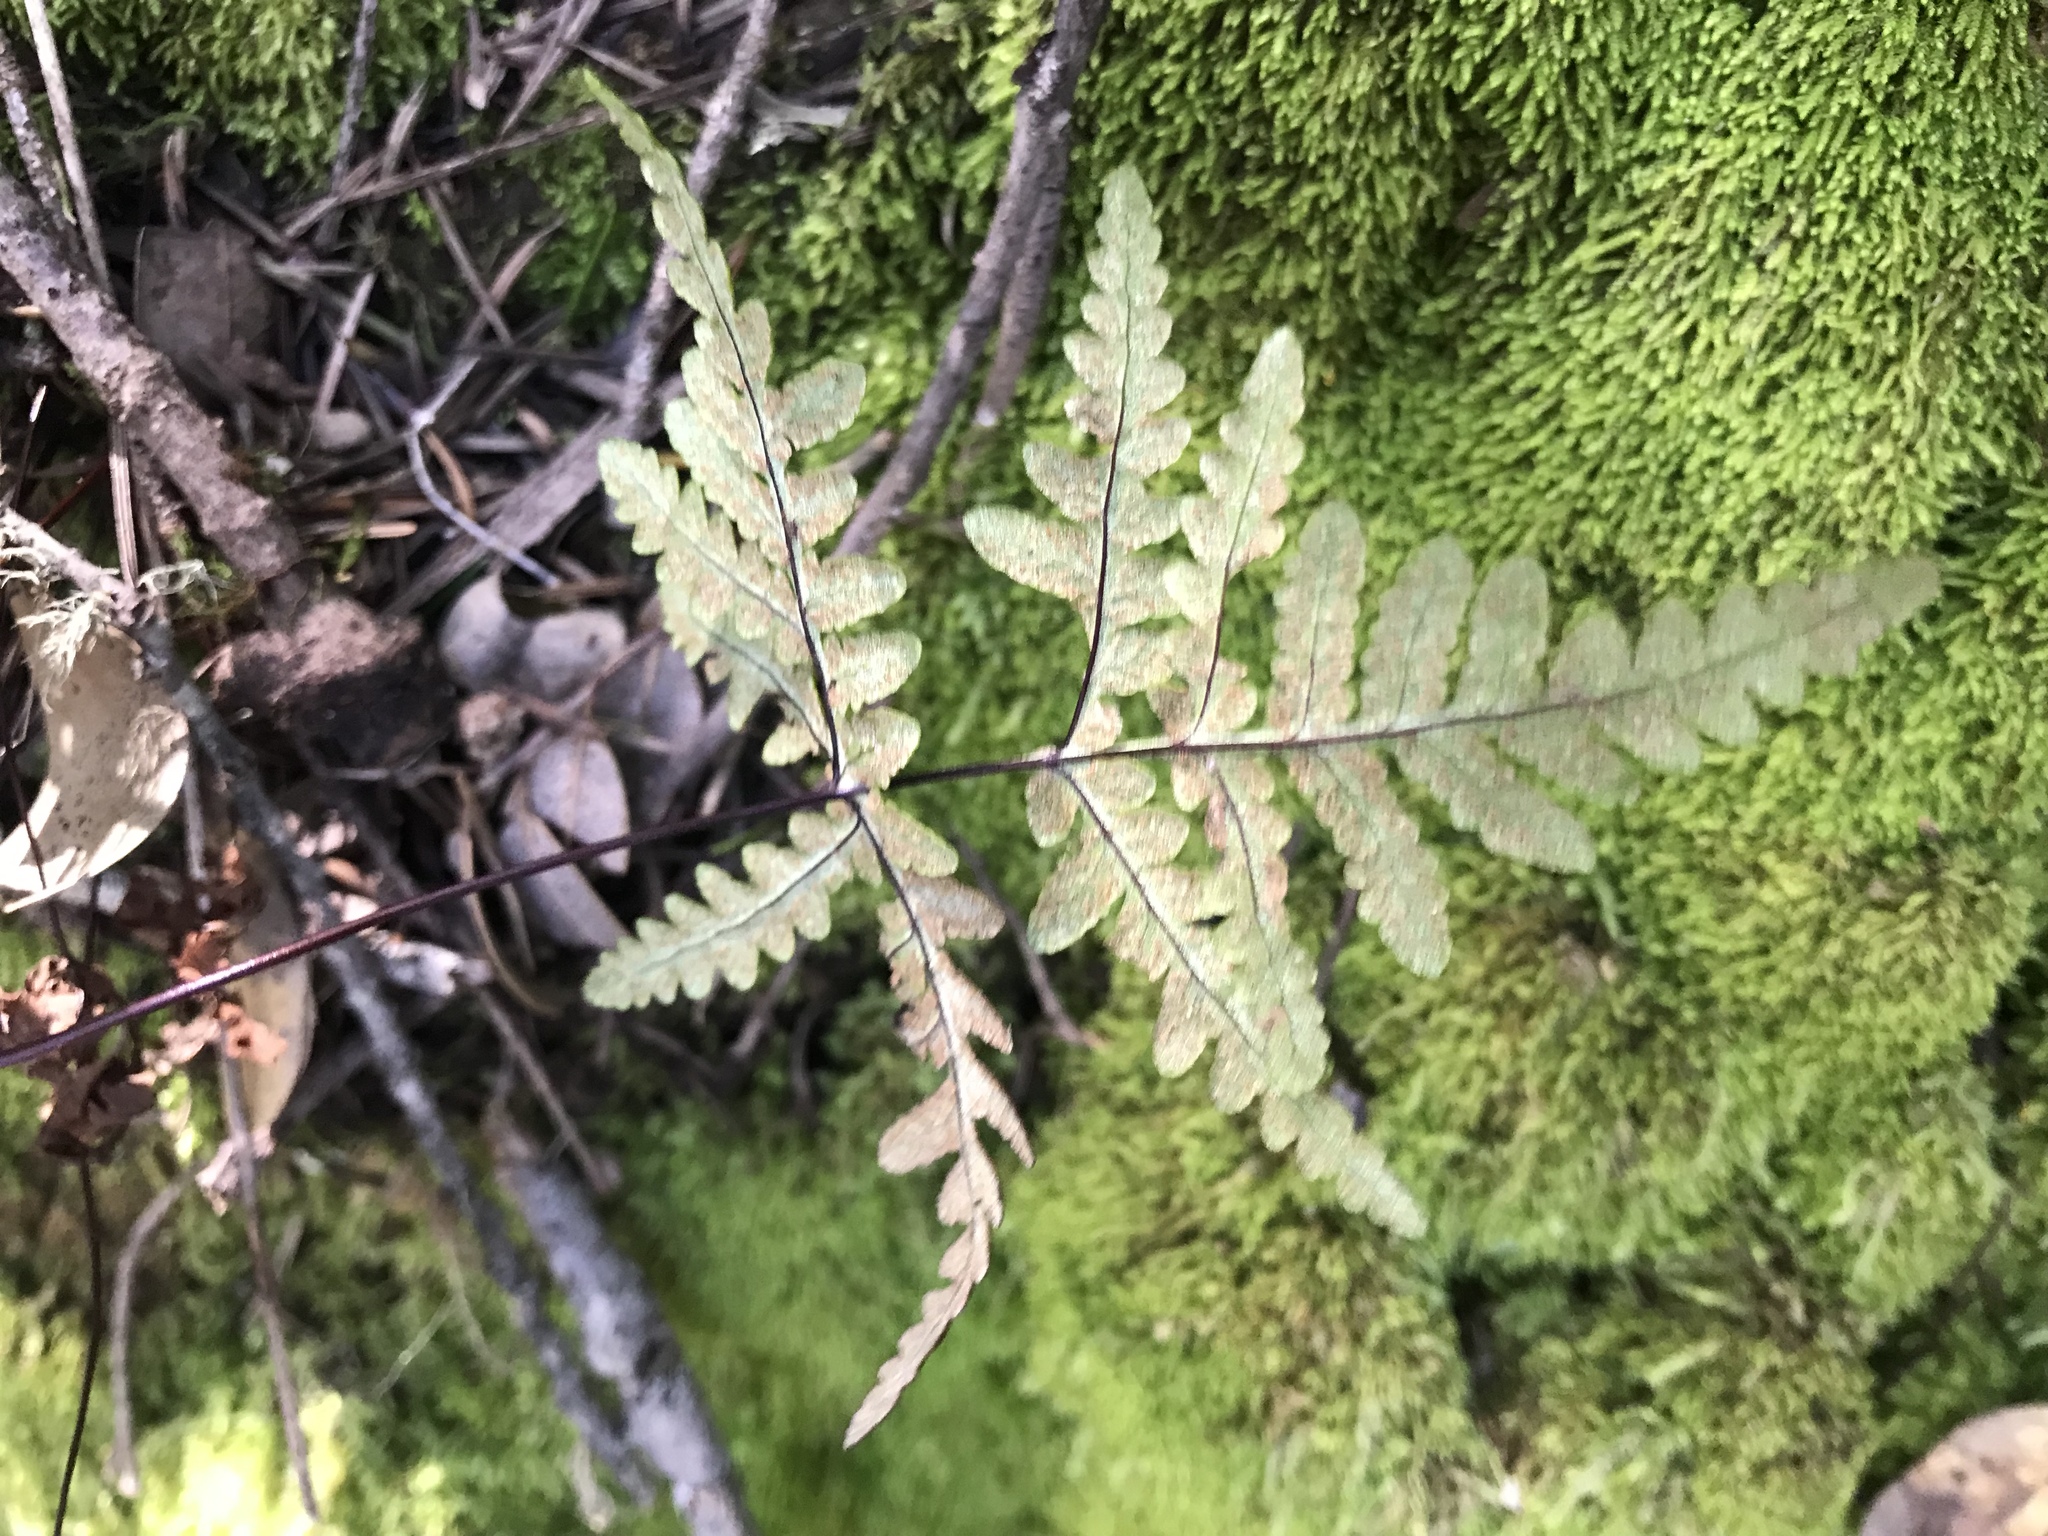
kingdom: Plantae
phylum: Tracheophyta
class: Polypodiopsida
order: Polypodiales
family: Pteridaceae
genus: Pentagramma
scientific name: Pentagramma triangularis
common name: Gold fern
